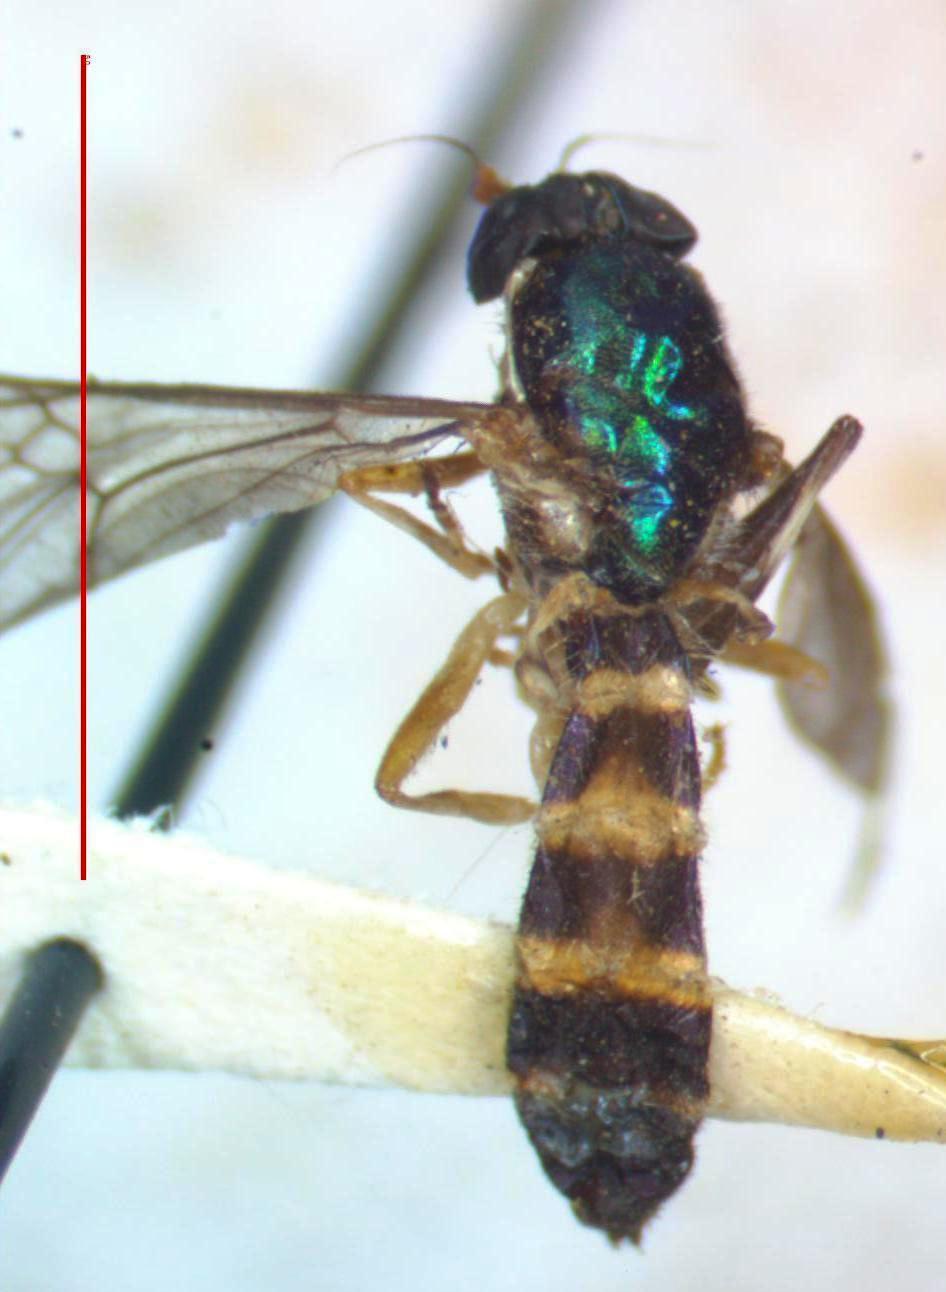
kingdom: Animalia
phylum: Arthropoda
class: Insecta
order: Diptera
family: Stratiomyidae
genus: Merosargus
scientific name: Merosargus cingulatus
